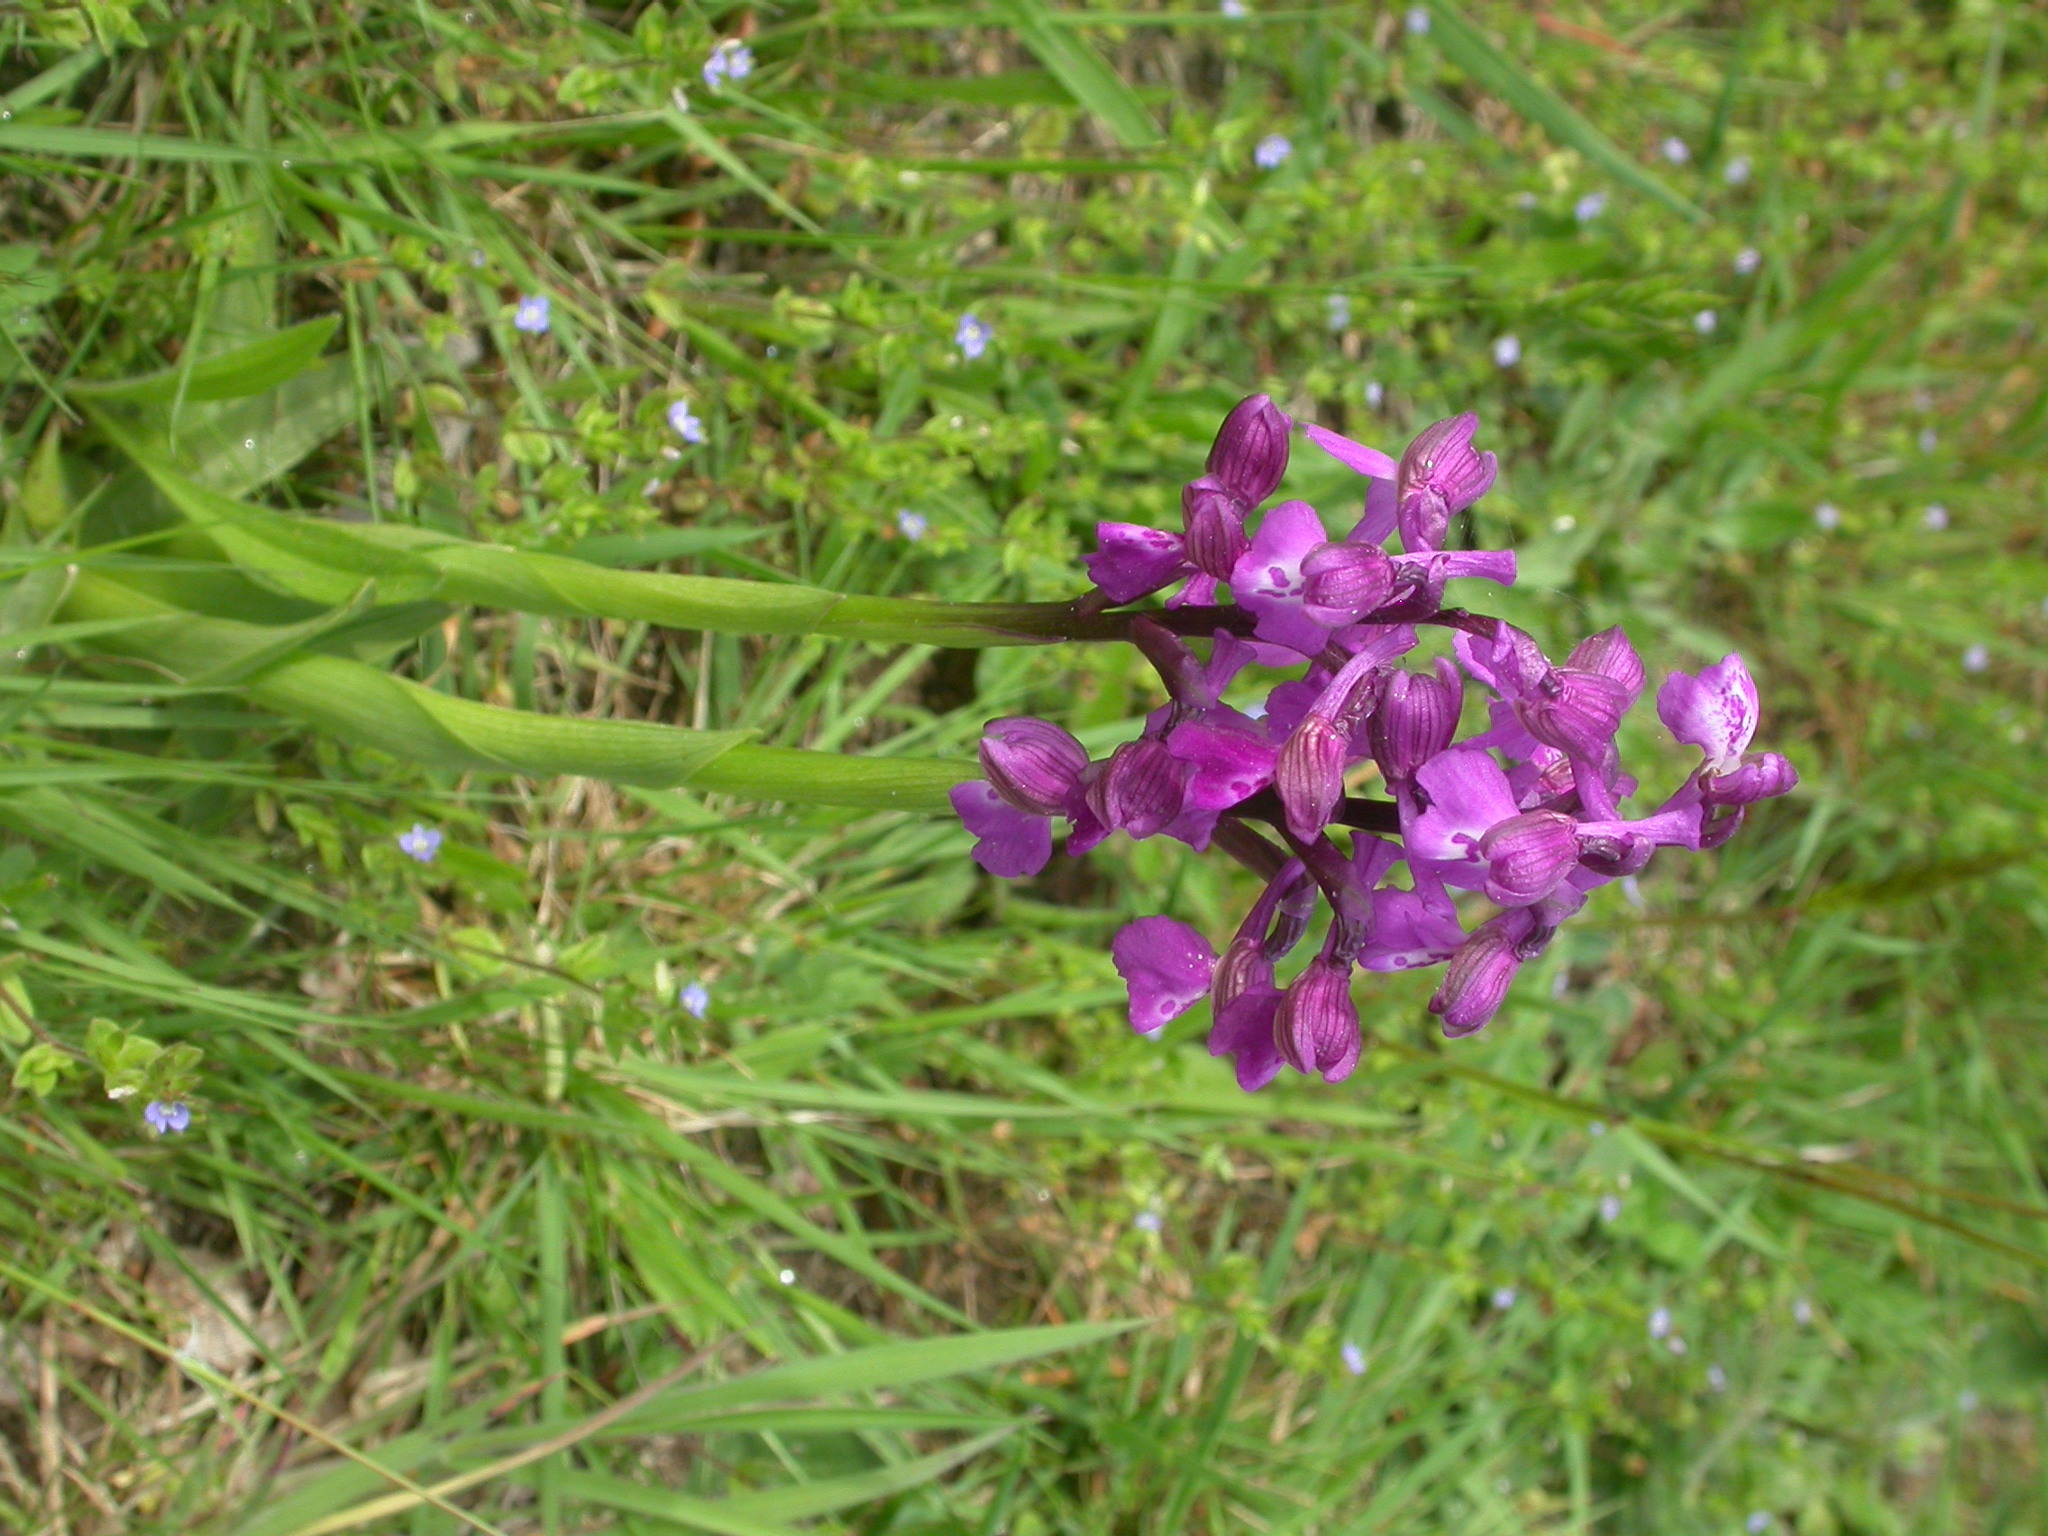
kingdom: Plantae
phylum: Tracheophyta
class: Liliopsida
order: Asparagales
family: Orchidaceae
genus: Anacamptis
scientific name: Anacamptis morio
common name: Green-winged orchid
